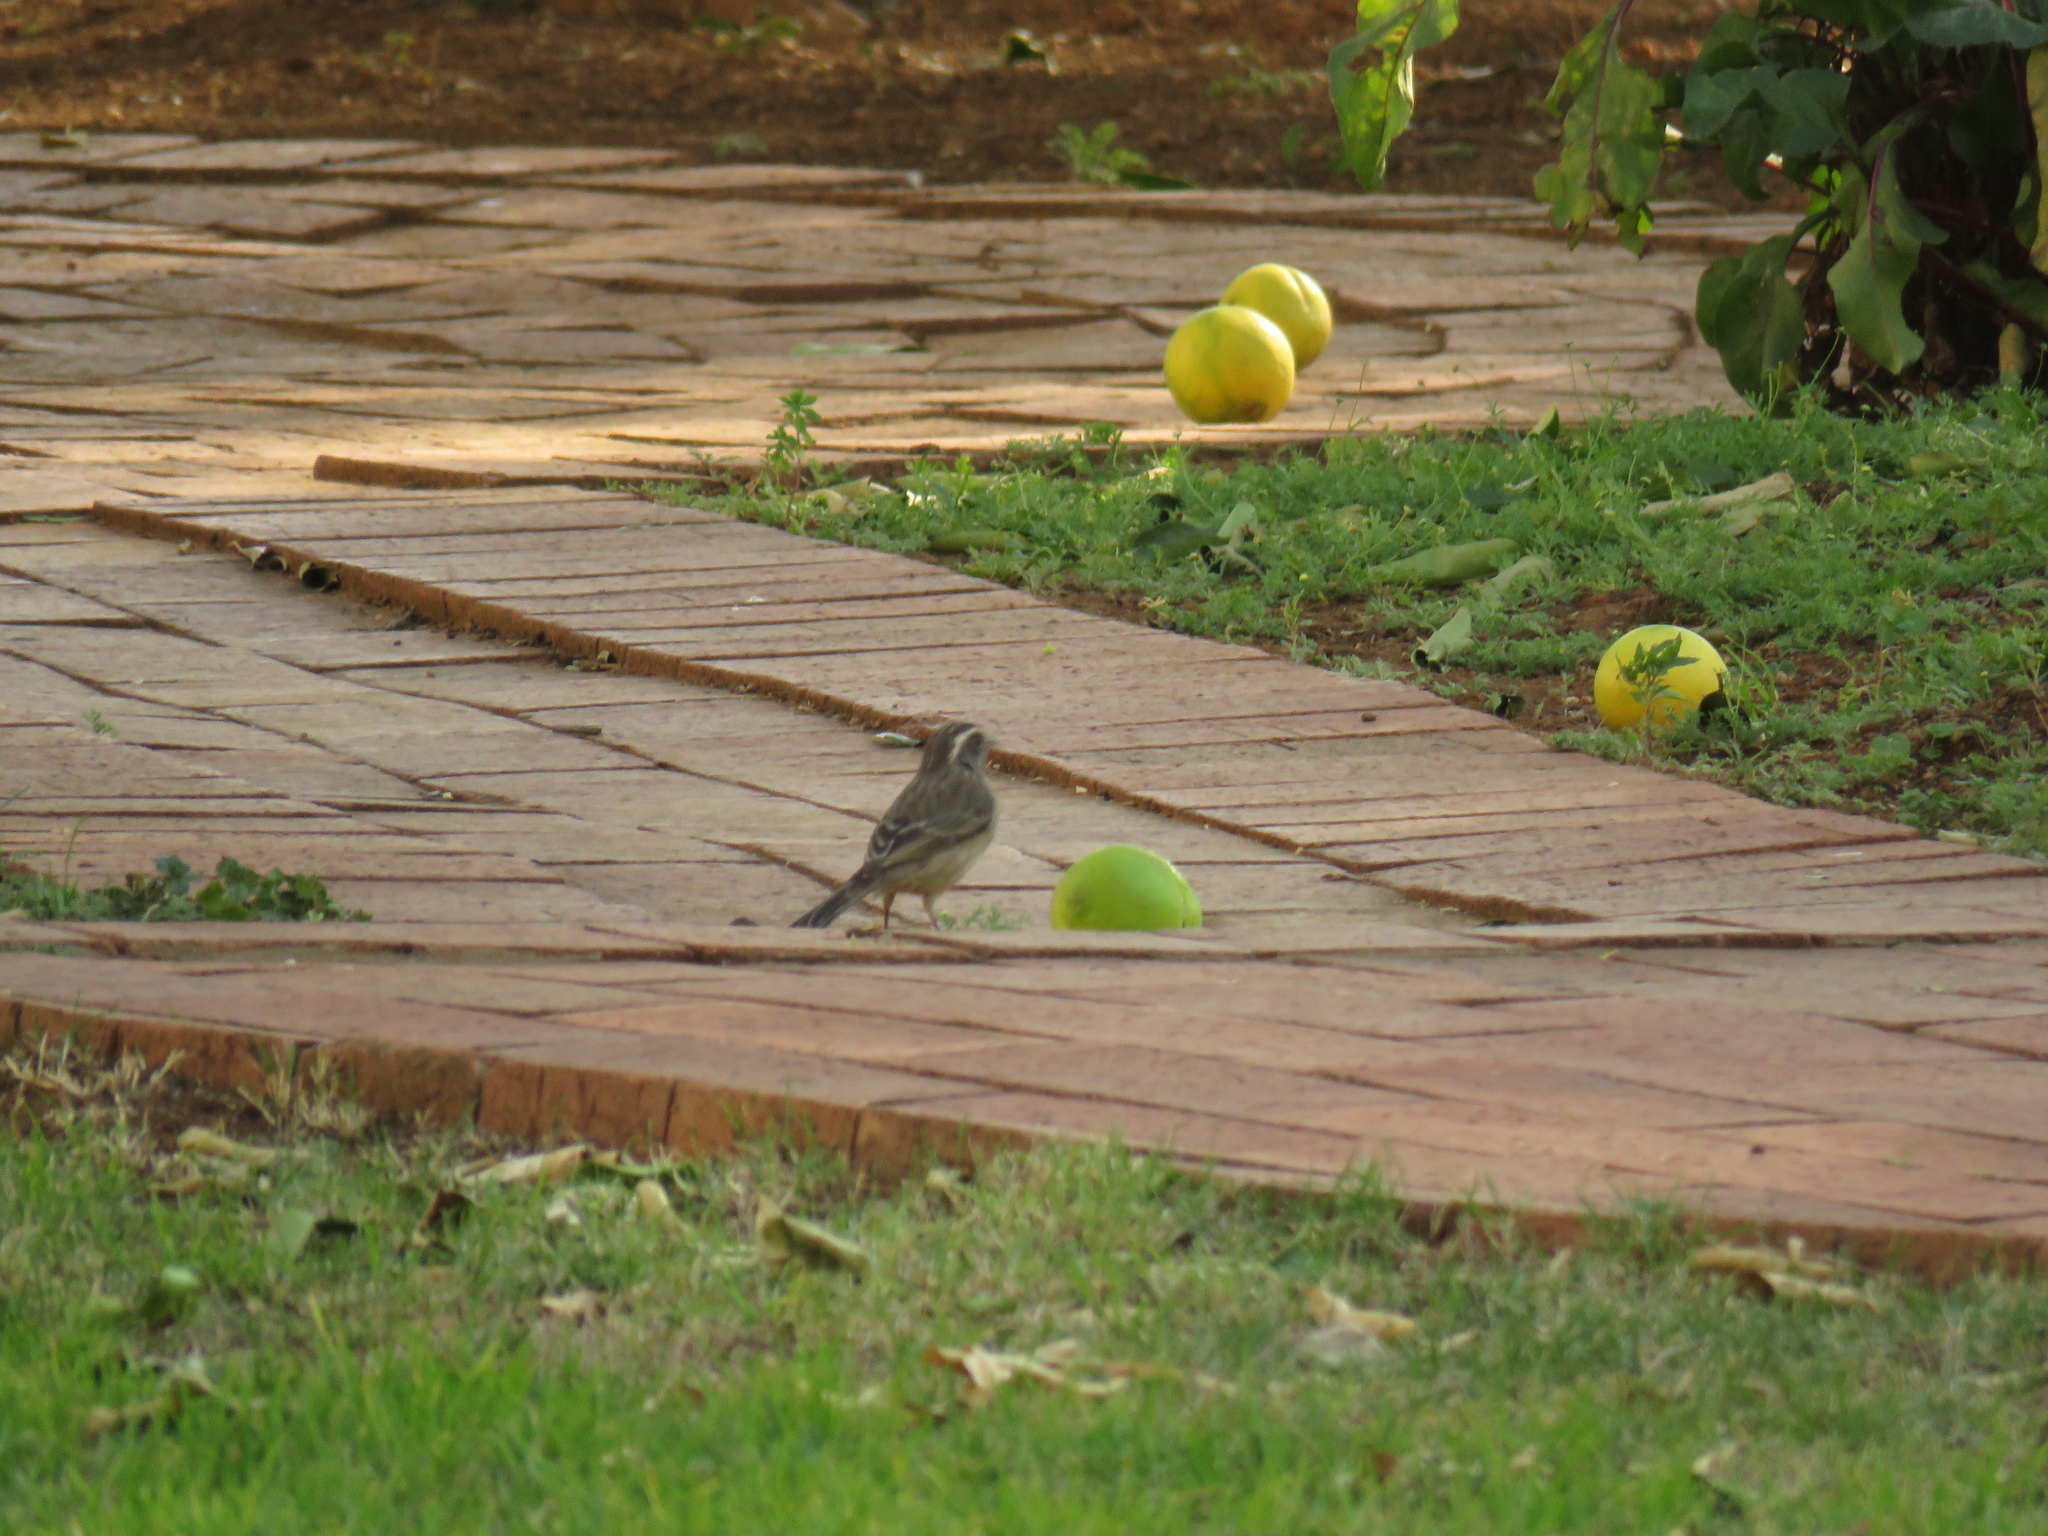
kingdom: Animalia
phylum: Chordata
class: Aves
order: Passeriformes
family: Fringillidae
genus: Crithagra
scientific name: Crithagra gularis
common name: Streaky-headed seedeater
